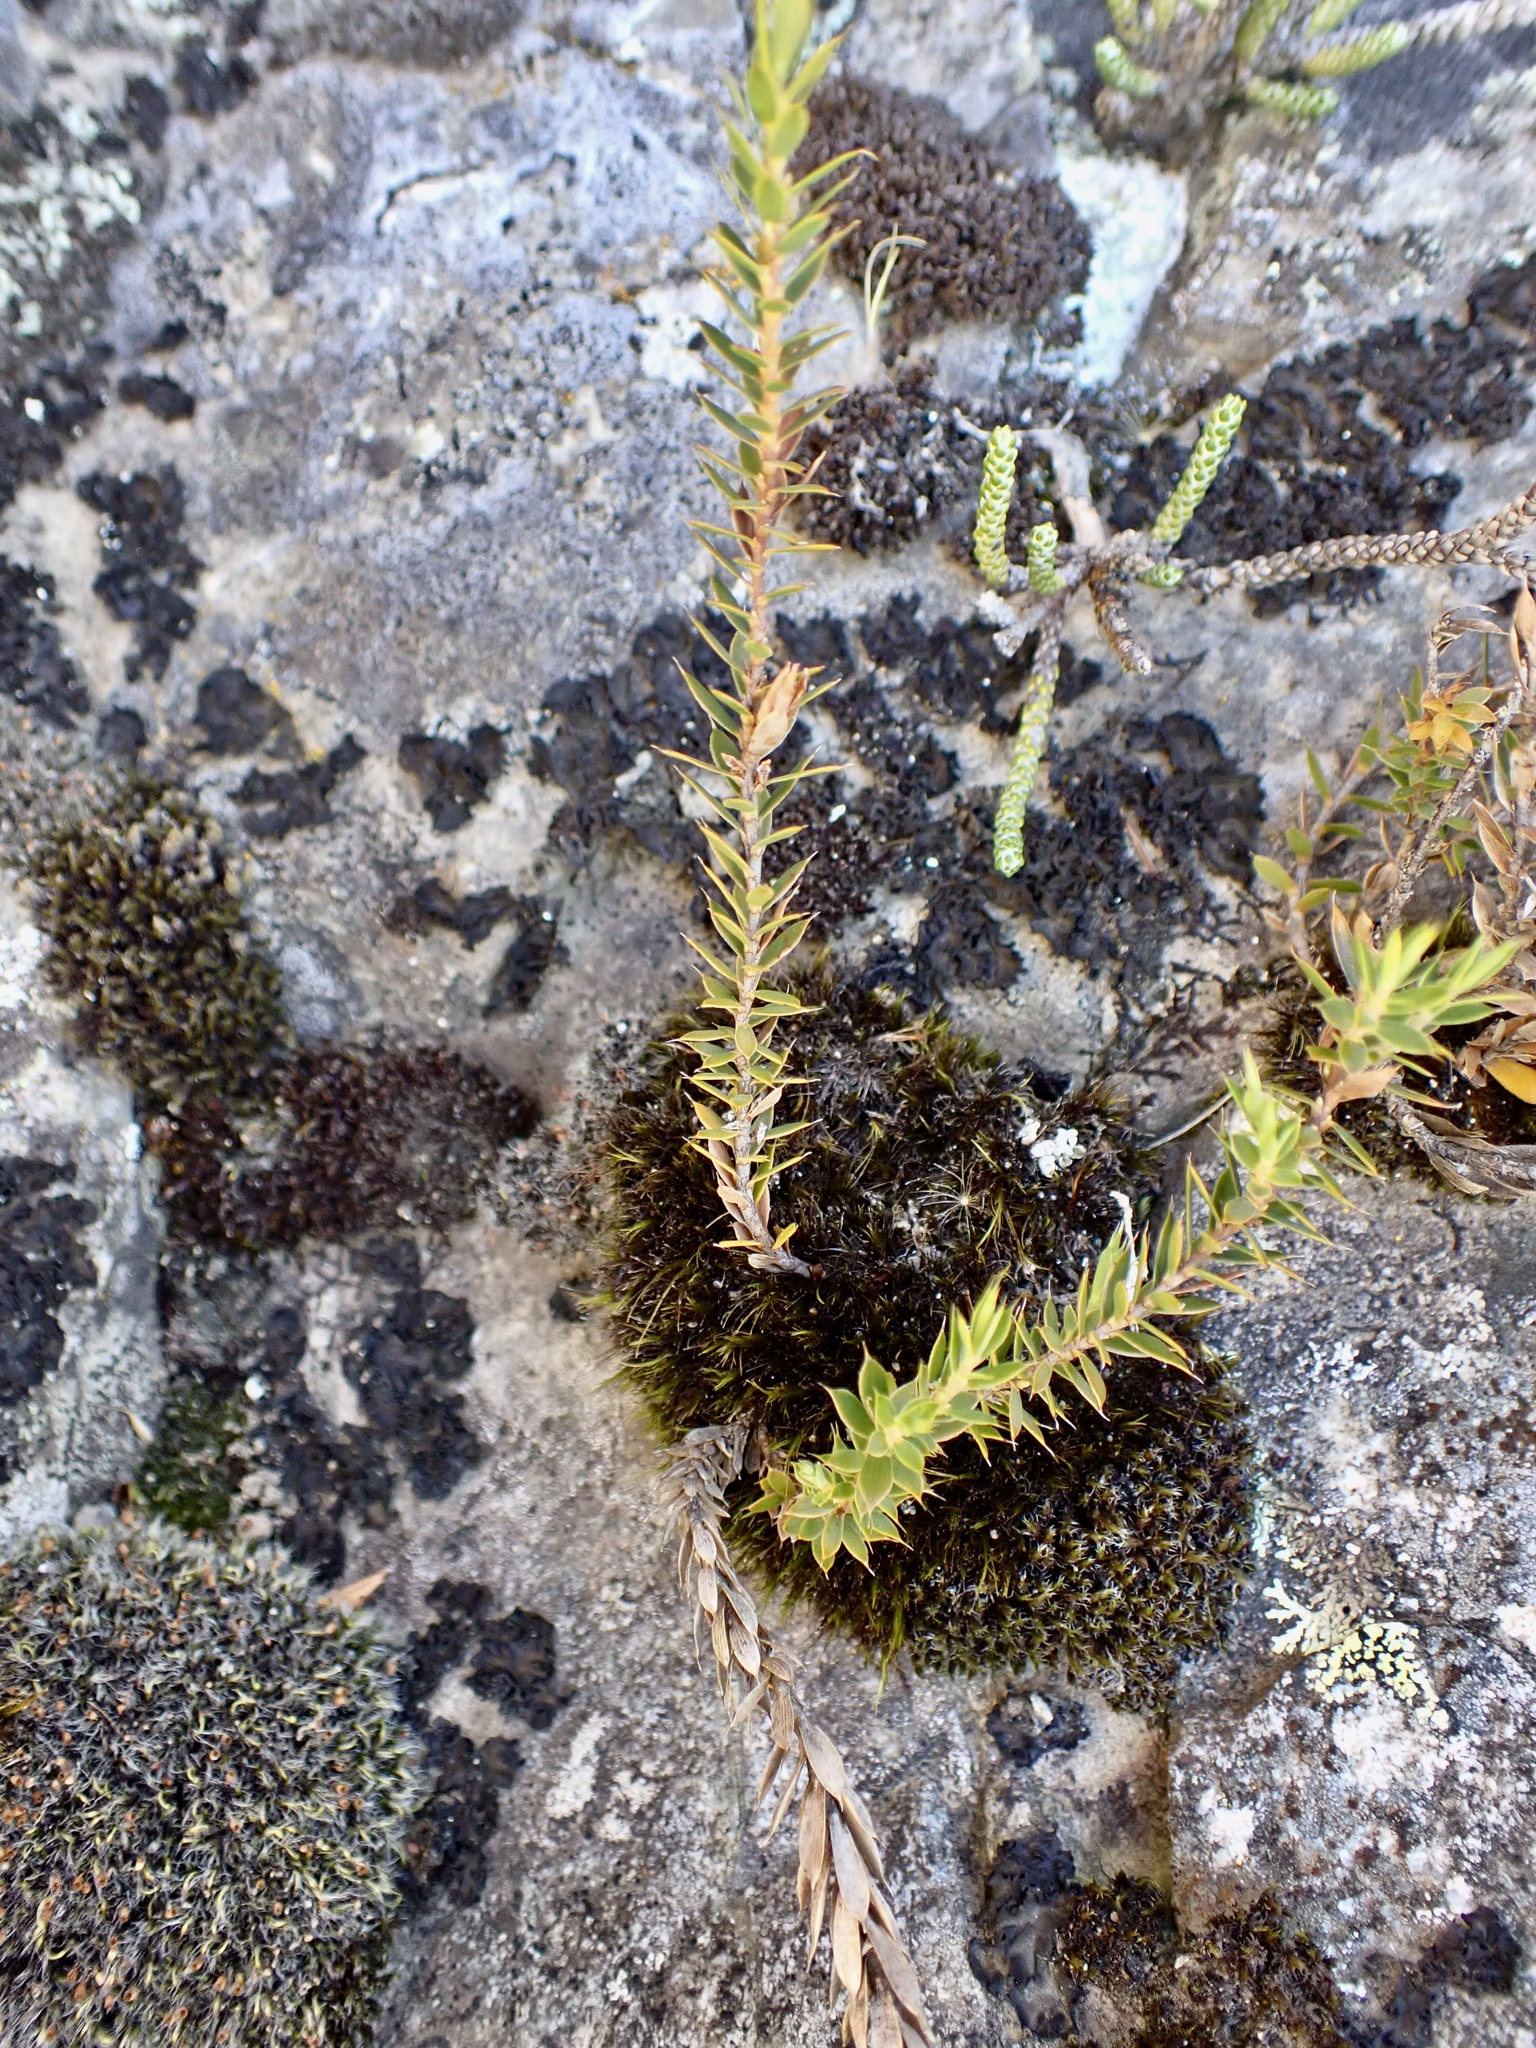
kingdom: Plantae
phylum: Tracheophyta
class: Magnoliopsida
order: Ericales
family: Ericaceae
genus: Styphelia
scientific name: Styphelia nesophila
